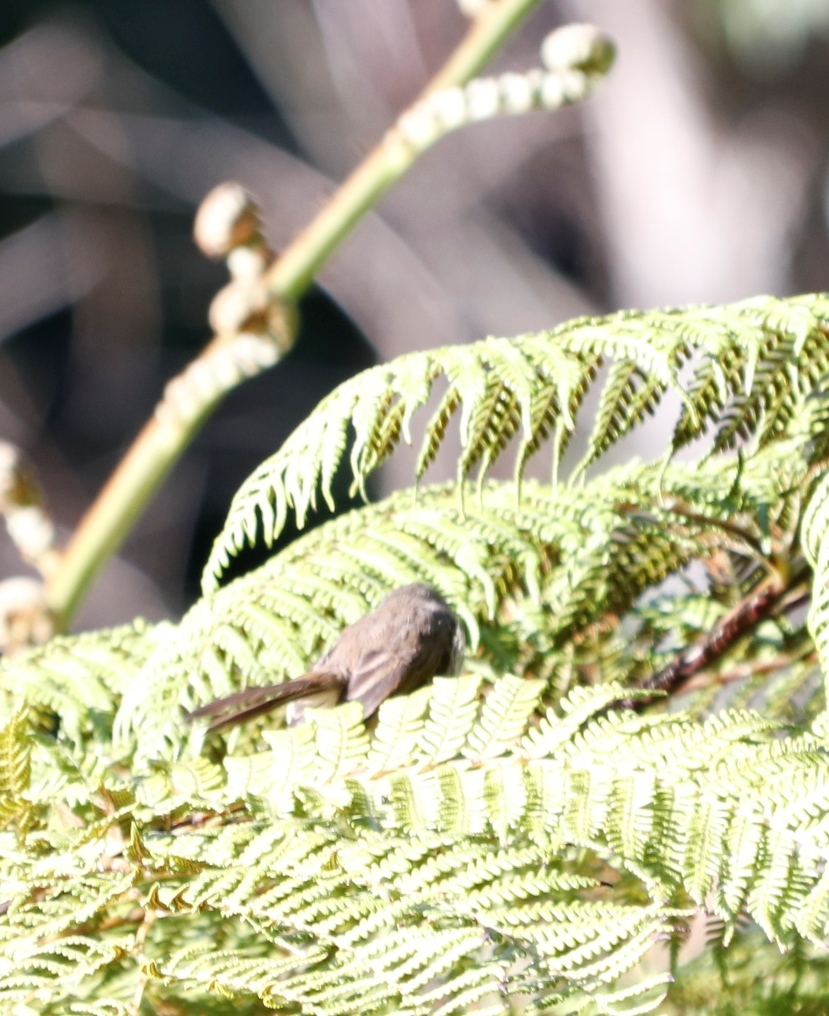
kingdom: Animalia
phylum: Chordata
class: Aves
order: Passeriformes
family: Cisticolidae
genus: Prinia
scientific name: Prinia maculosa
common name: Karoo prinia
